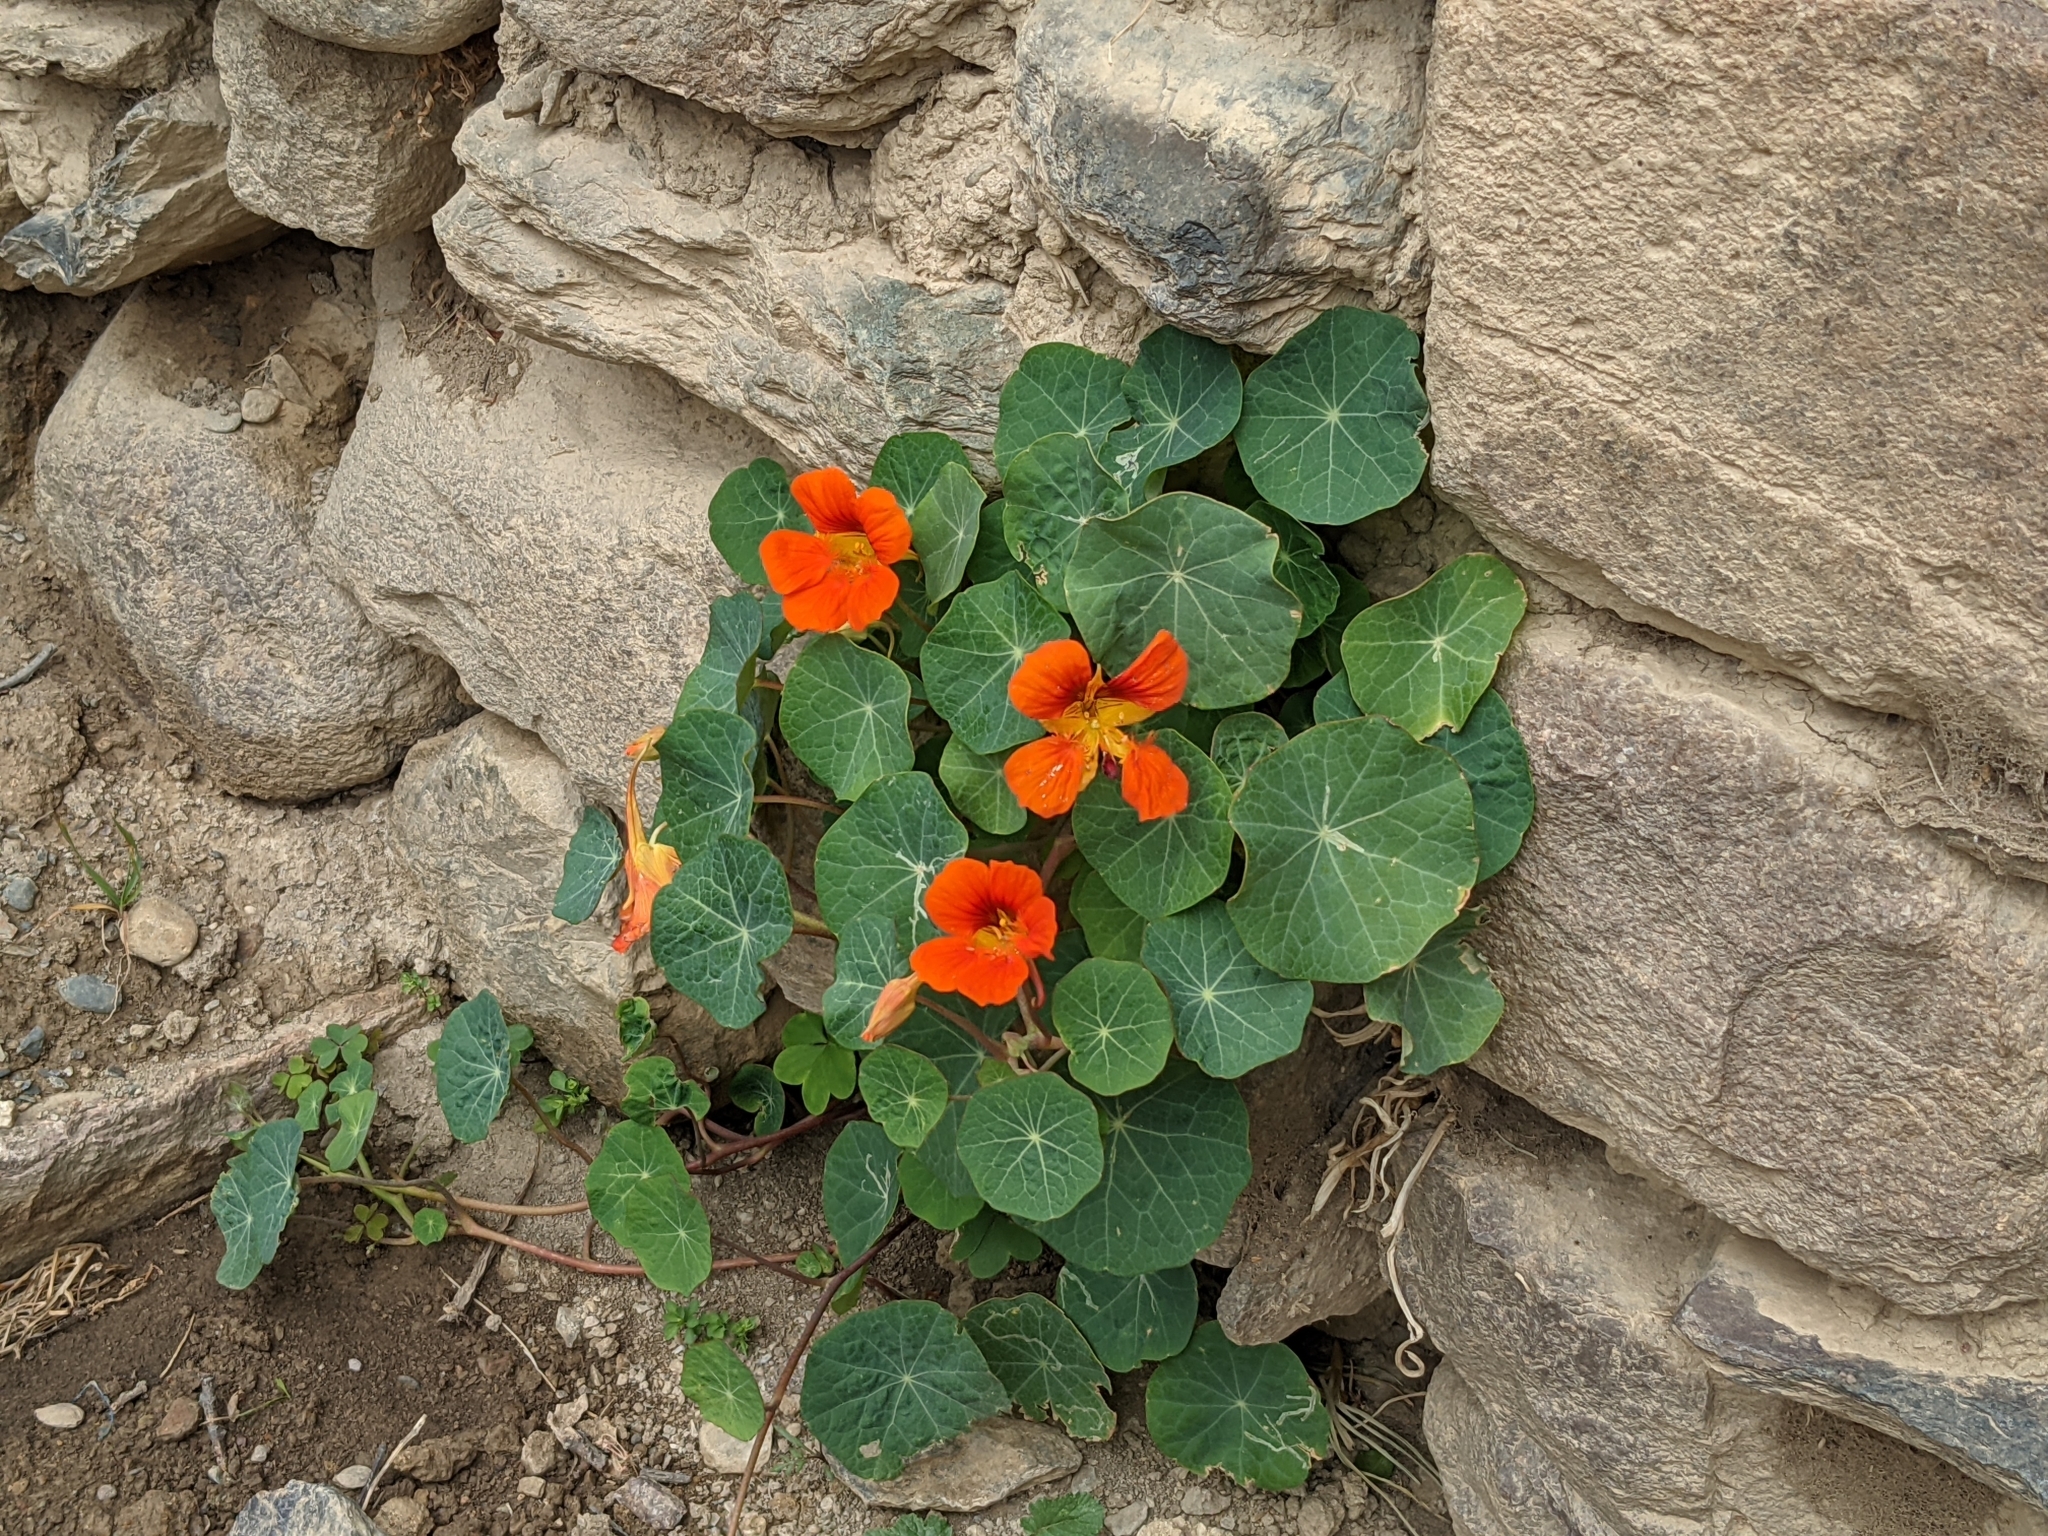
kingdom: Plantae
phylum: Tracheophyta
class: Magnoliopsida
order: Brassicales
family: Tropaeolaceae
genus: Tropaeolum
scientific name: Tropaeolum majus
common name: Nasturtium
